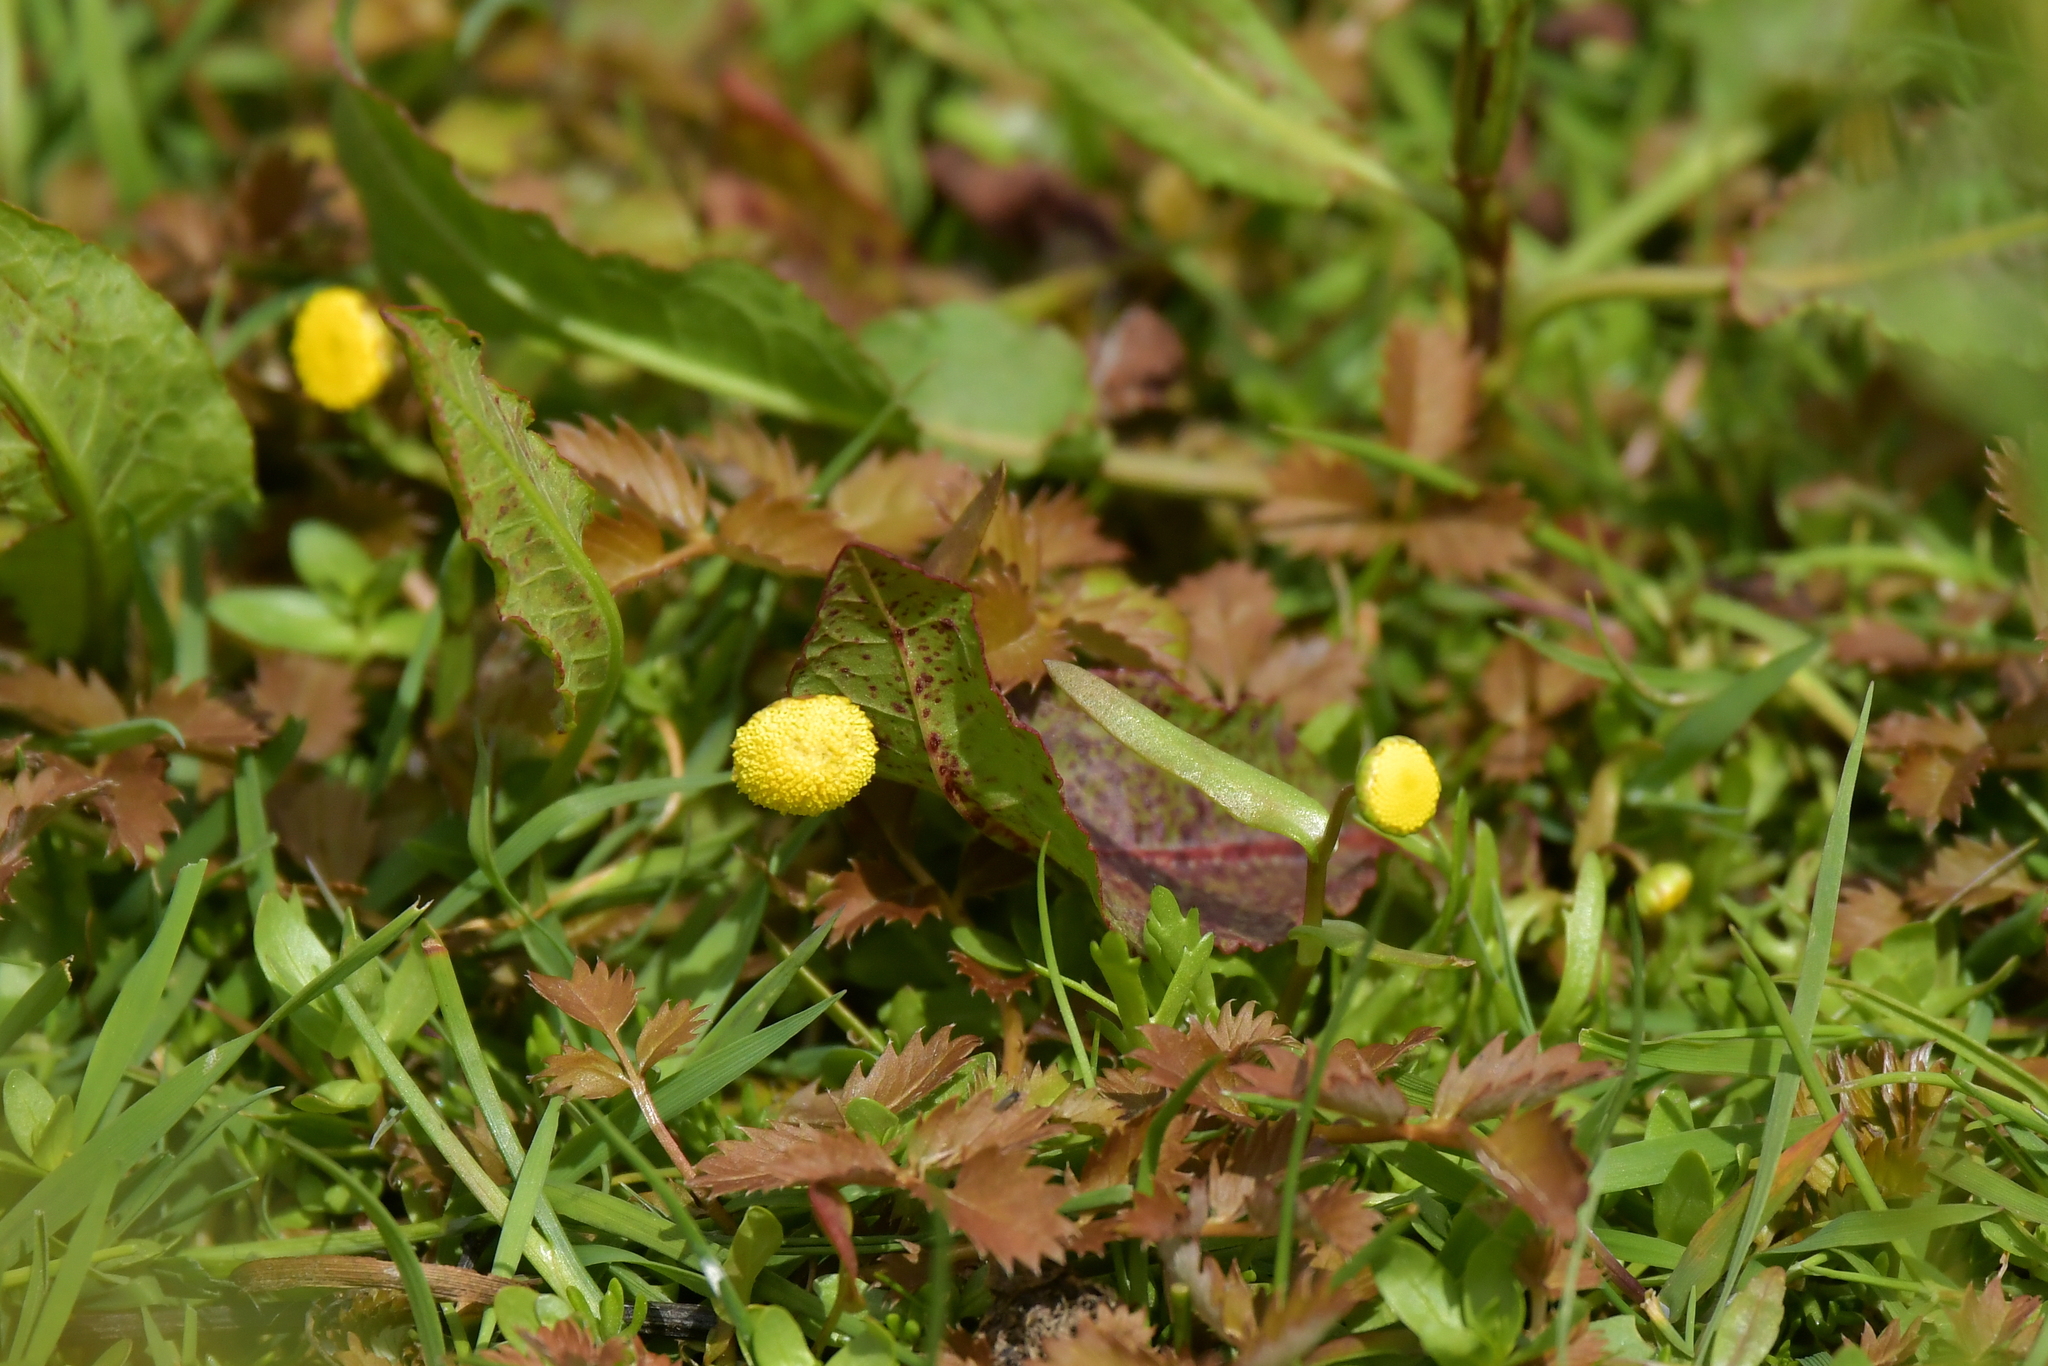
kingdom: Plantae
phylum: Tracheophyta
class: Magnoliopsida
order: Asterales
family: Asteraceae
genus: Cotula
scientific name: Cotula coronopifolia
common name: Buttonweed
